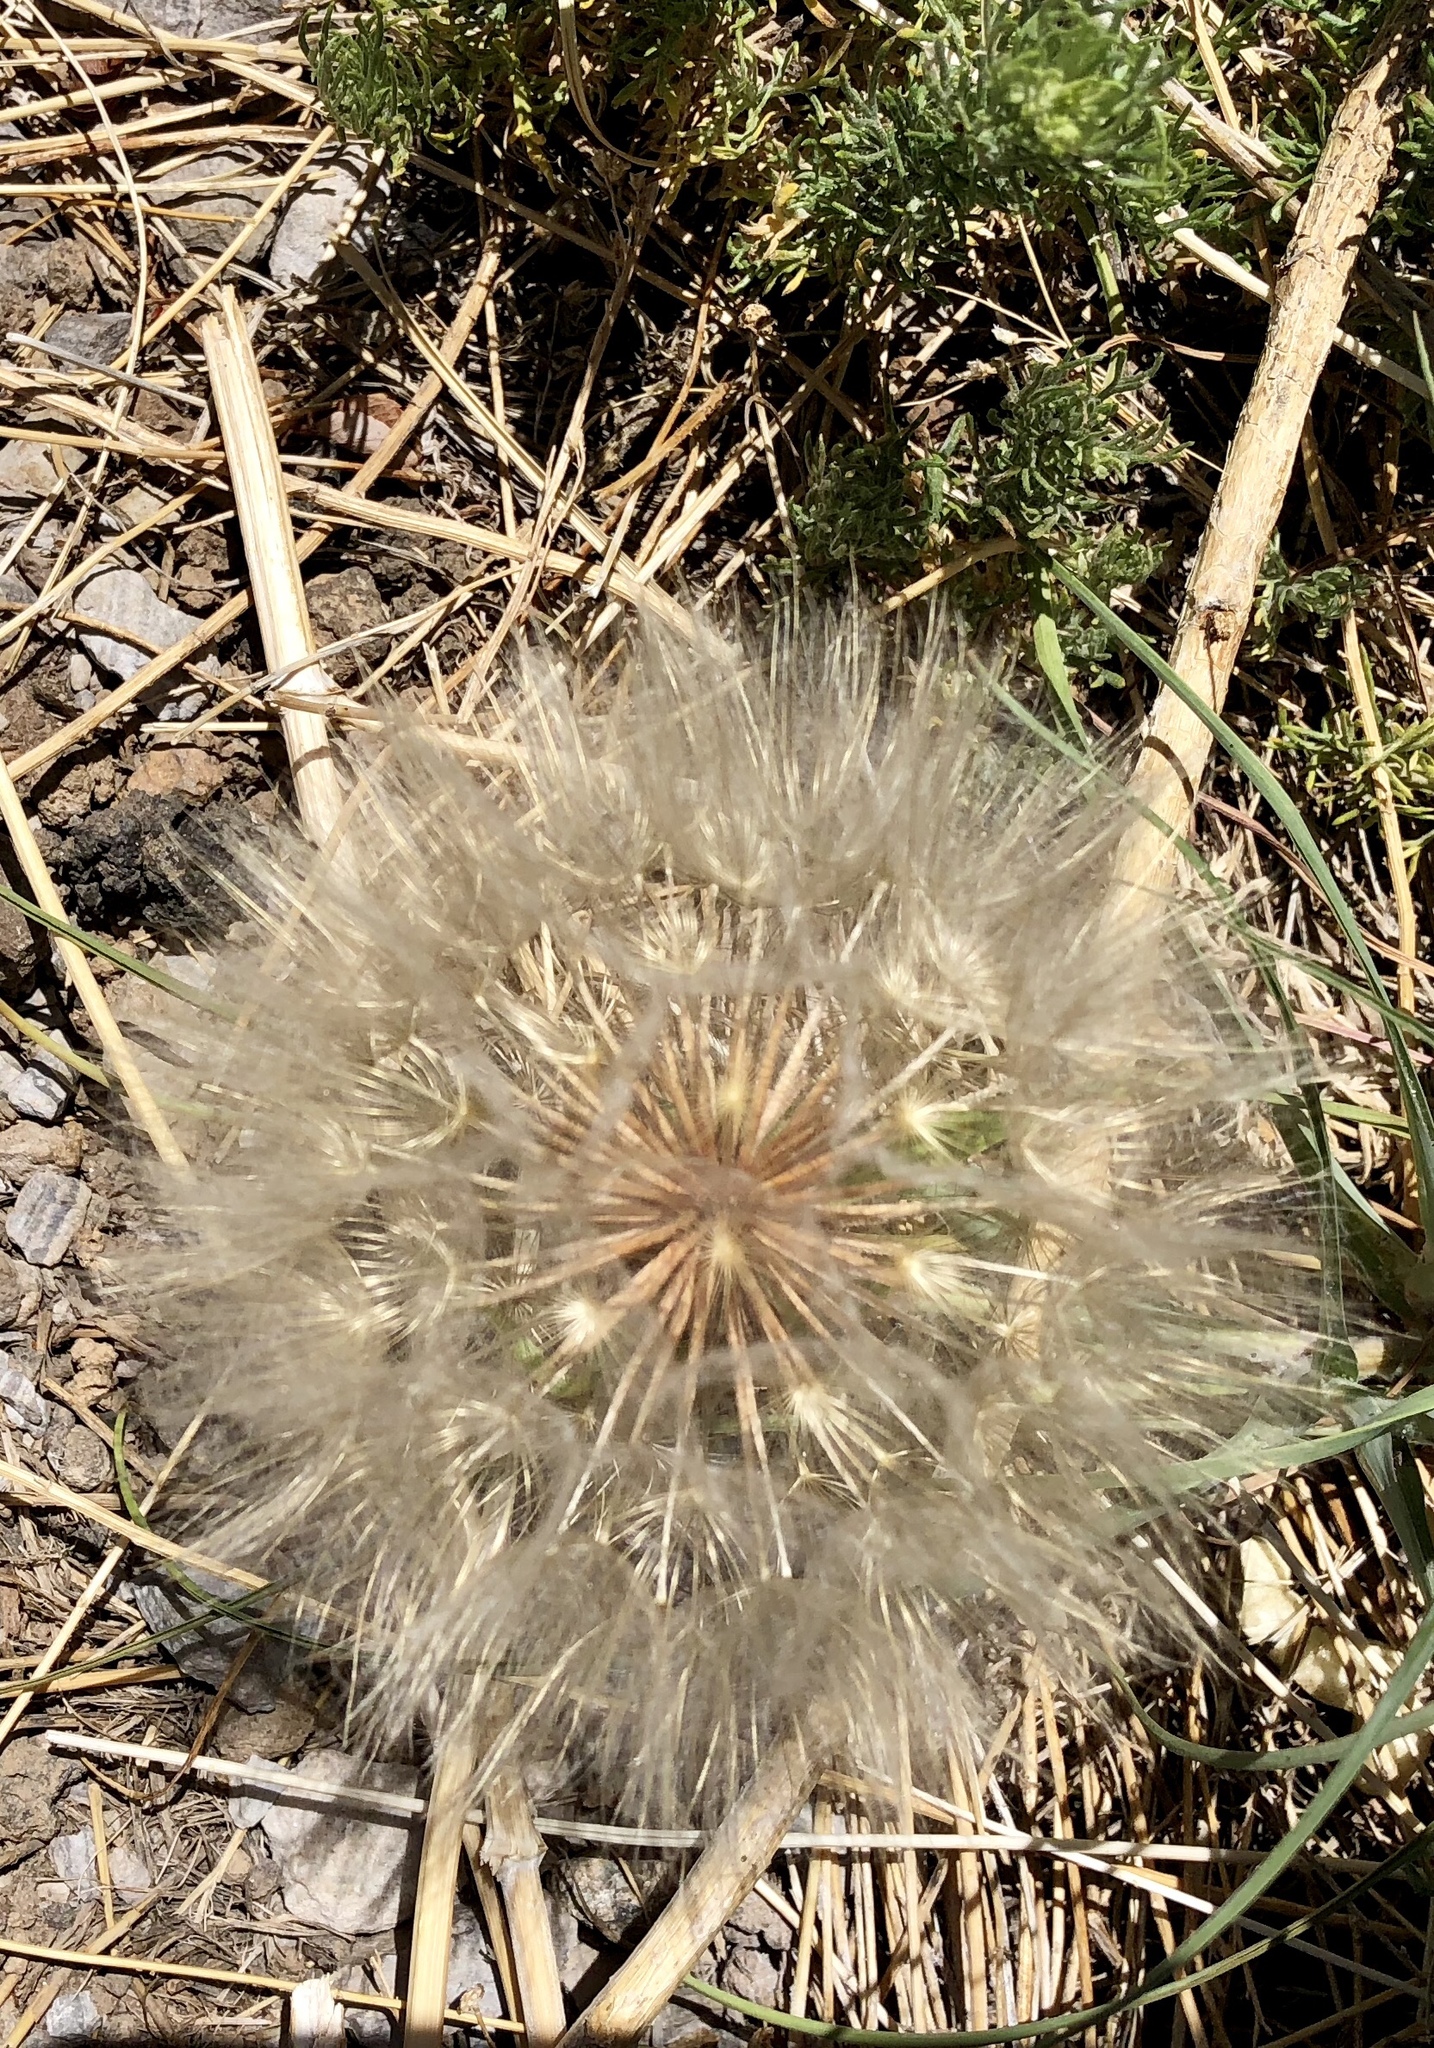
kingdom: Plantae
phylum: Tracheophyta
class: Magnoliopsida
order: Asterales
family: Asteraceae
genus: Tragopogon
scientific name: Tragopogon dubius
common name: Yellow salsify
